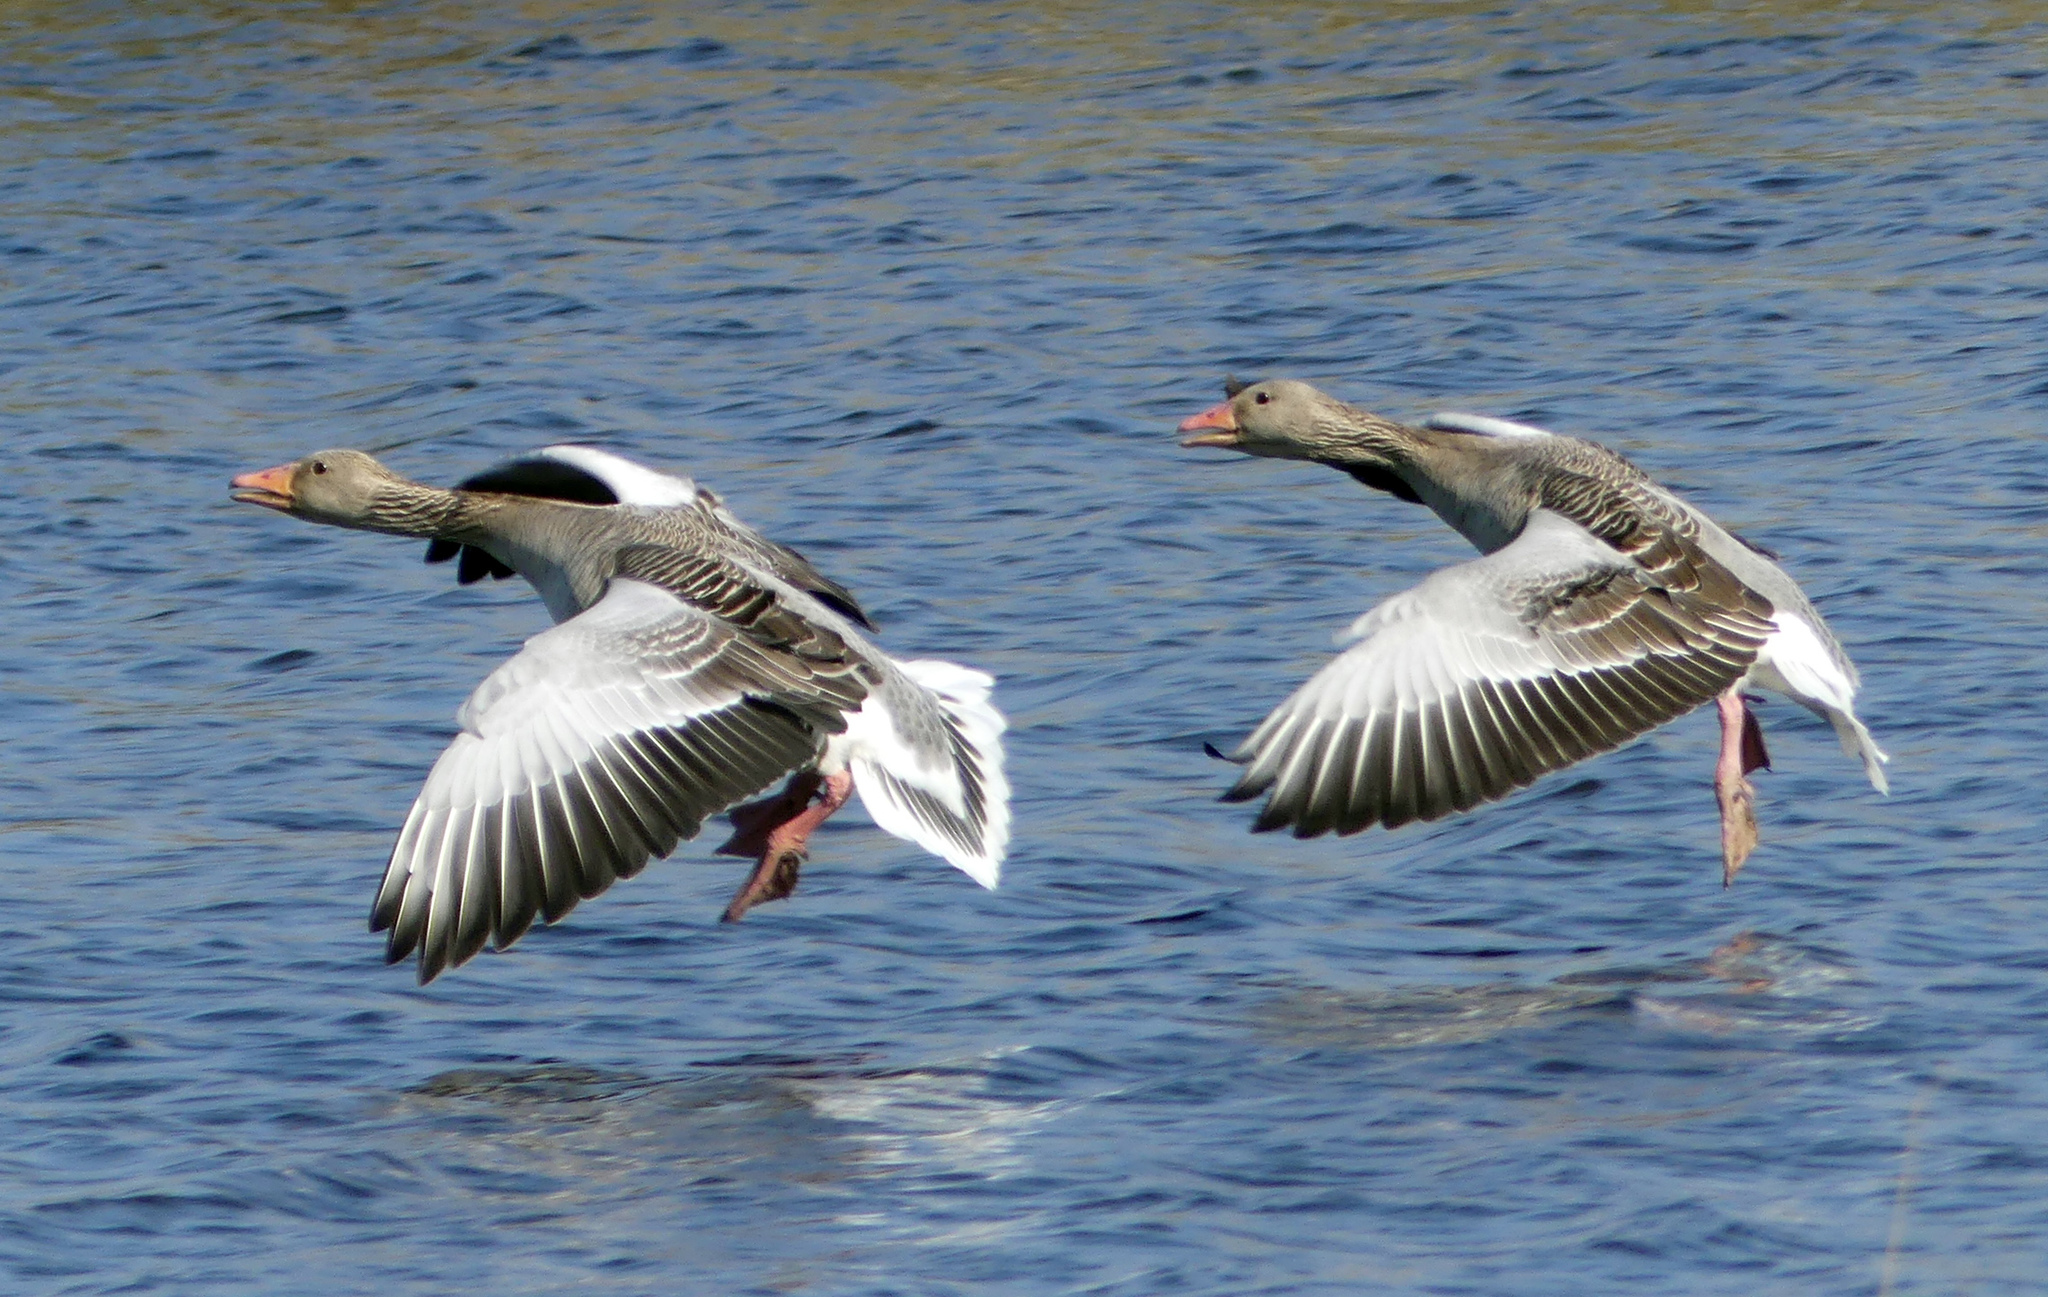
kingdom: Animalia
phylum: Chordata
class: Aves
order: Anseriformes
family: Anatidae
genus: Anser
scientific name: Anser anser
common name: Greylag goose
